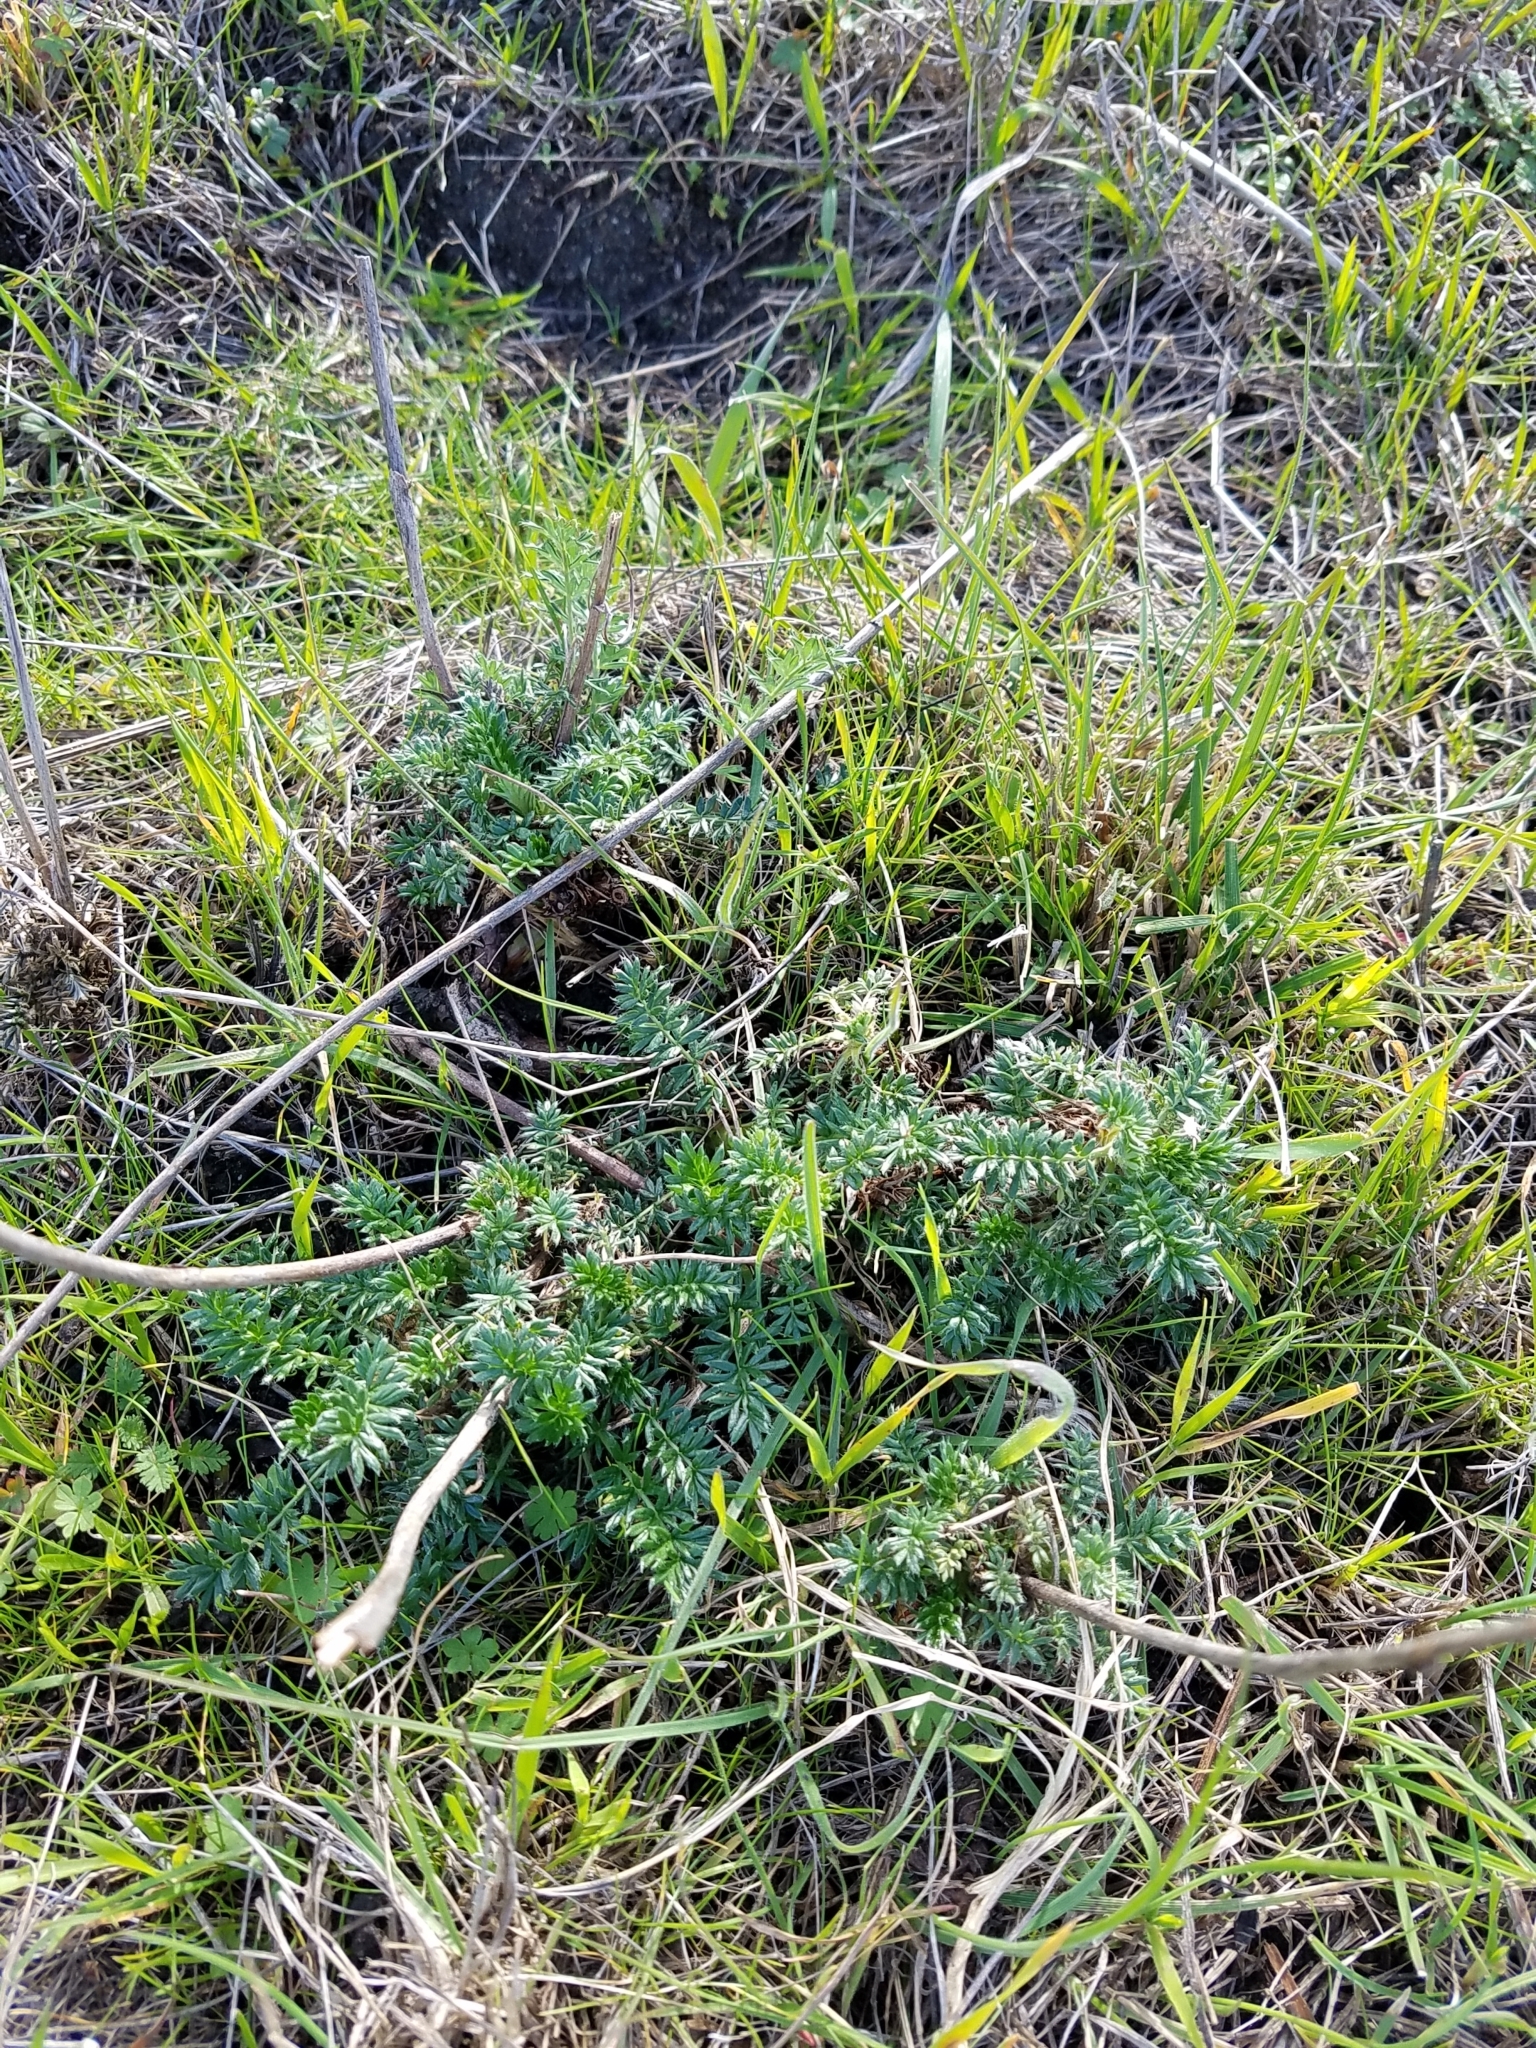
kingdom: Plantae
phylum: Tracheophyta
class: Magnoliopsida
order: Rosales
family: Rosaceae
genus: Acaena
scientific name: Acaena pinnatifida
